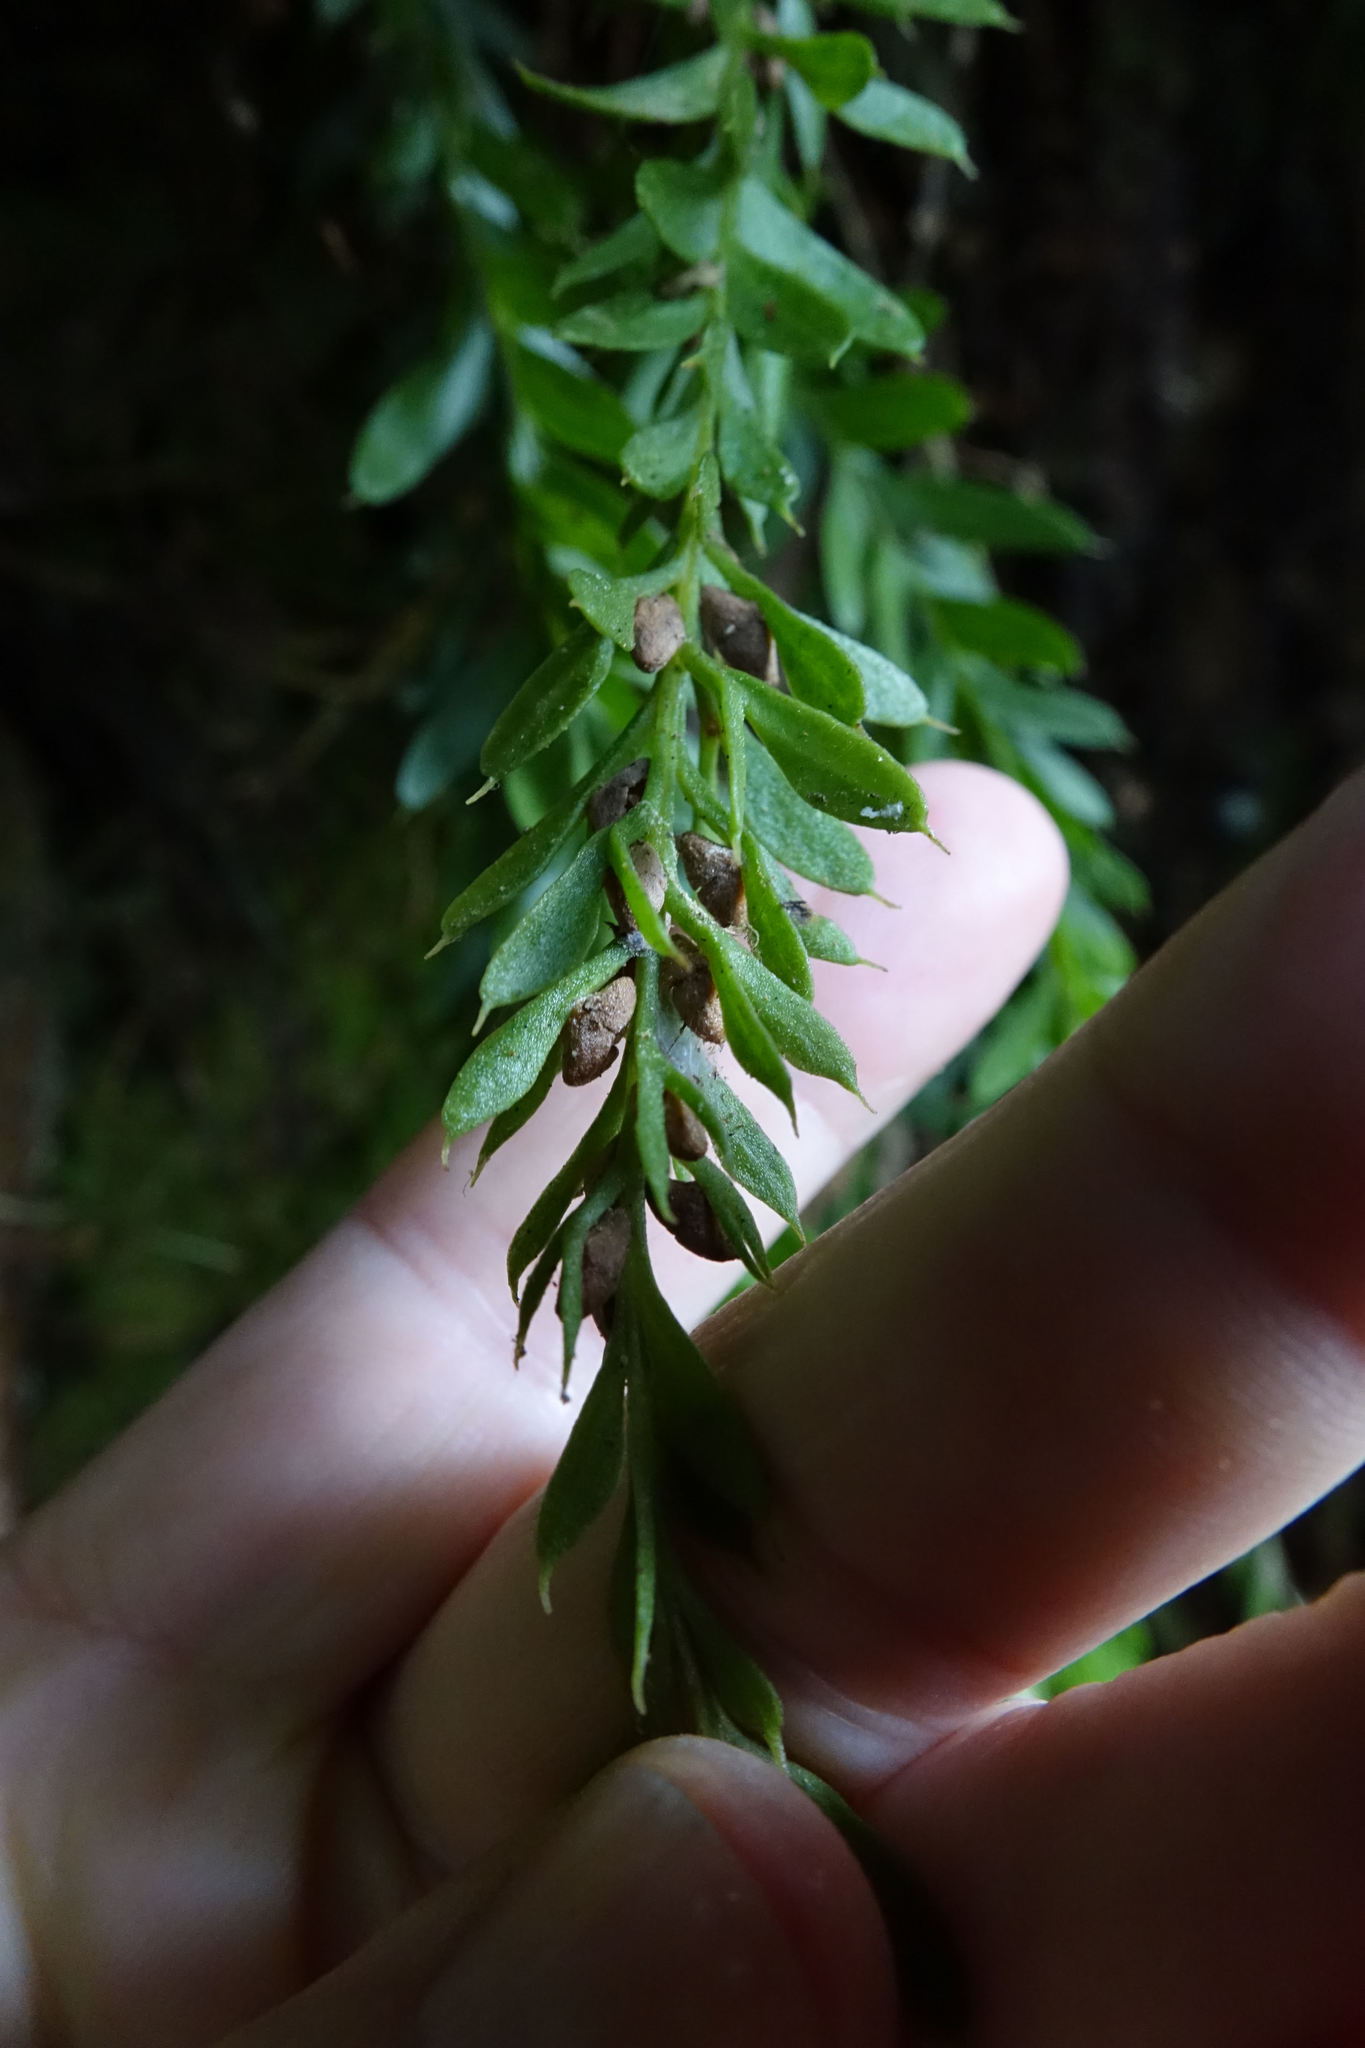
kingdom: Plantae
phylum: Tracheophyta
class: Polypodiopsida
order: Psilotales
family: Psilotaceae
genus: Tmesipteris
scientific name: Tmesipteris tannensis
